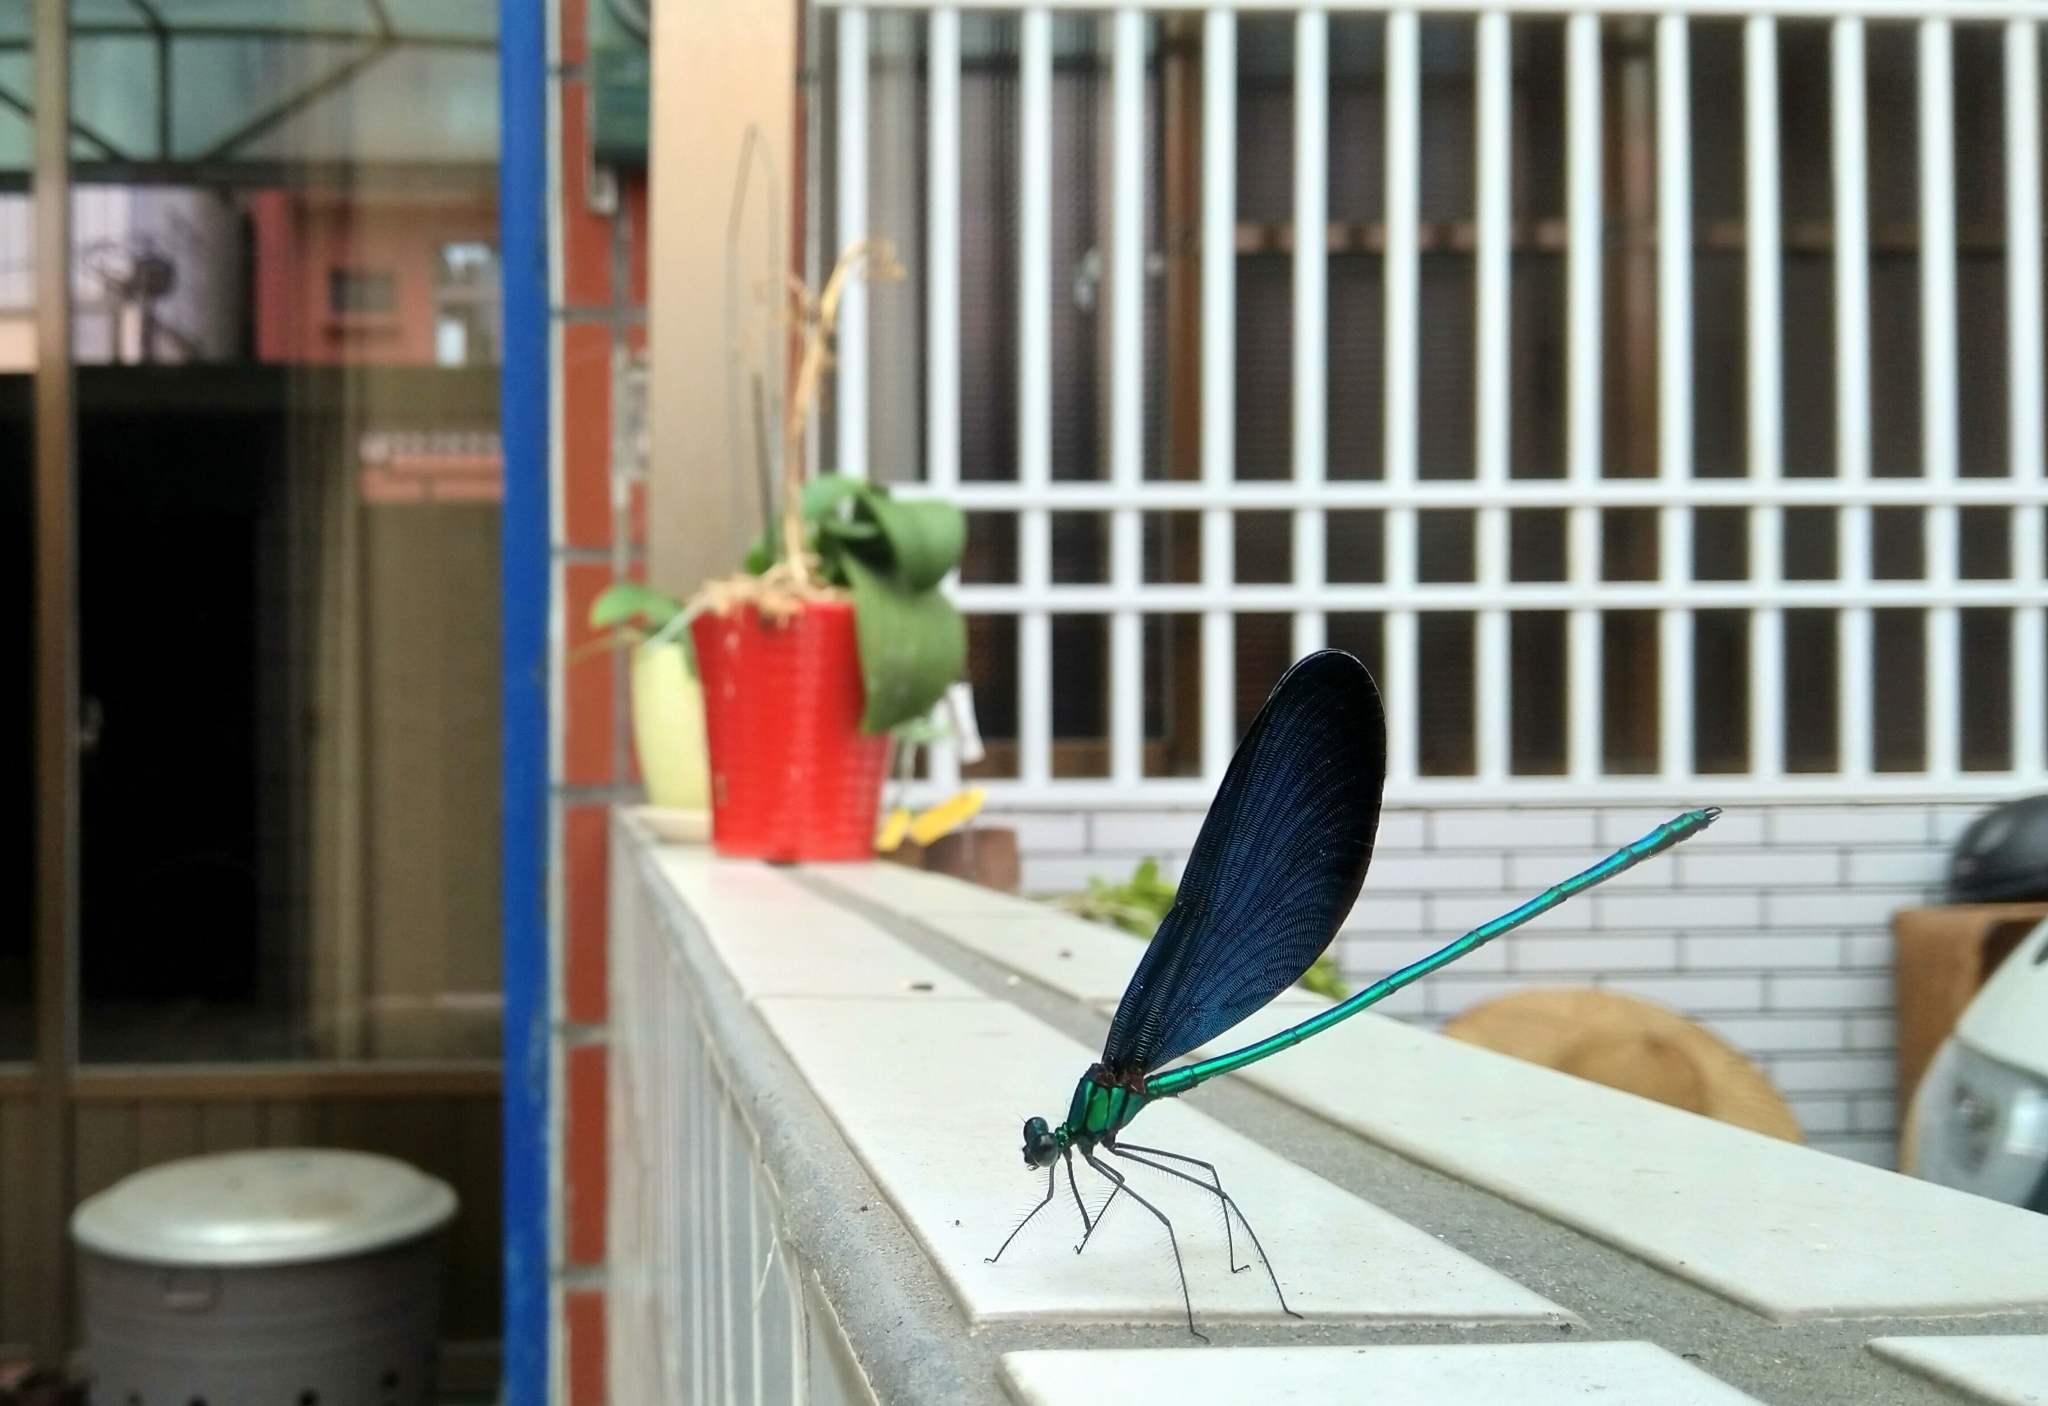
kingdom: Animalia
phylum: Arthropoda
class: Insecta
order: Odonata
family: Calopterygidae
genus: Matrona
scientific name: Matrona cyanoptera
